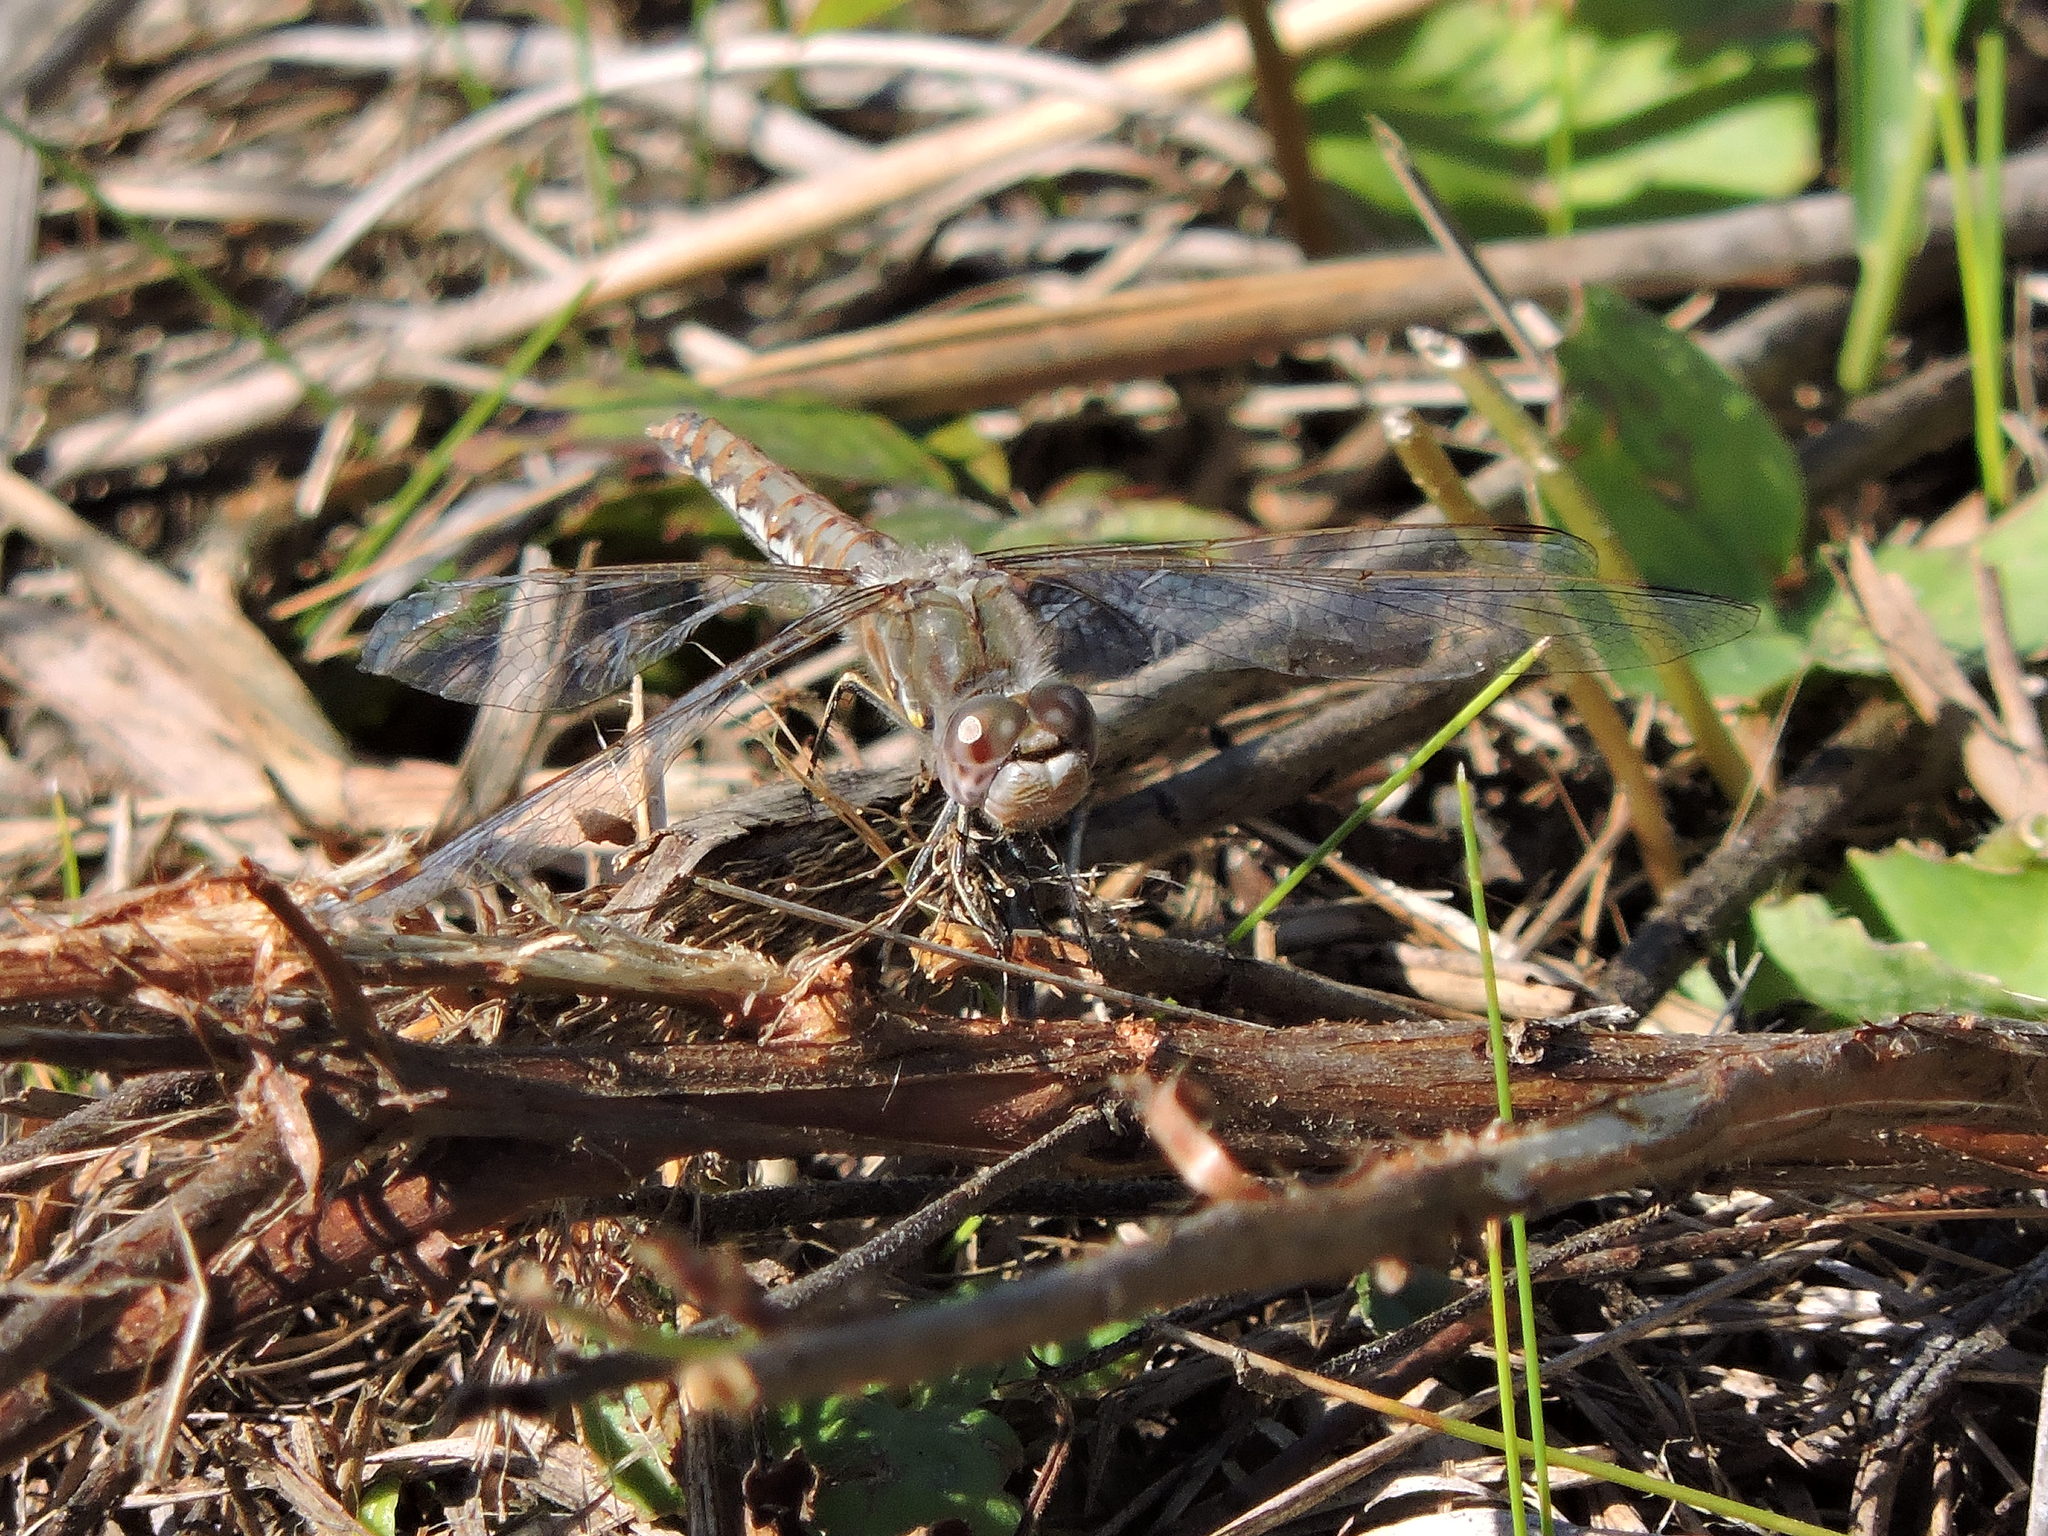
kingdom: Animalia
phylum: Arthropoda
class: Insecta
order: Odonata
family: Libellulidae
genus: Sympetrum
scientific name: Sympetrum corruptum
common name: Variegated meadowhawk
